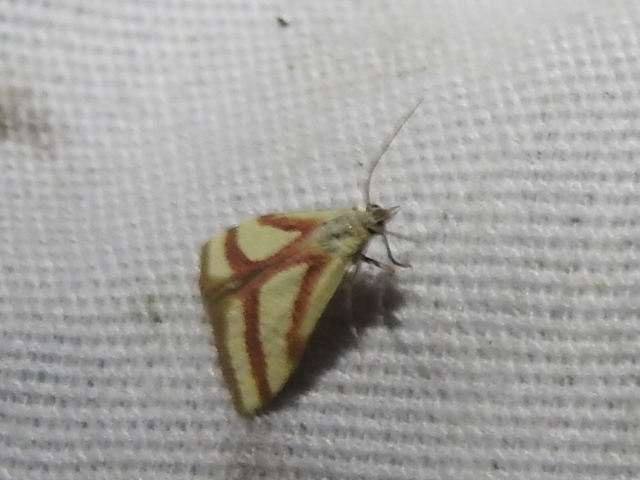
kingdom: Animalia
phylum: Arthropoda
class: Insecta
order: Lepidoptera
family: Crambidae
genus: Microtheoris
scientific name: Microtheoris vibicalis
